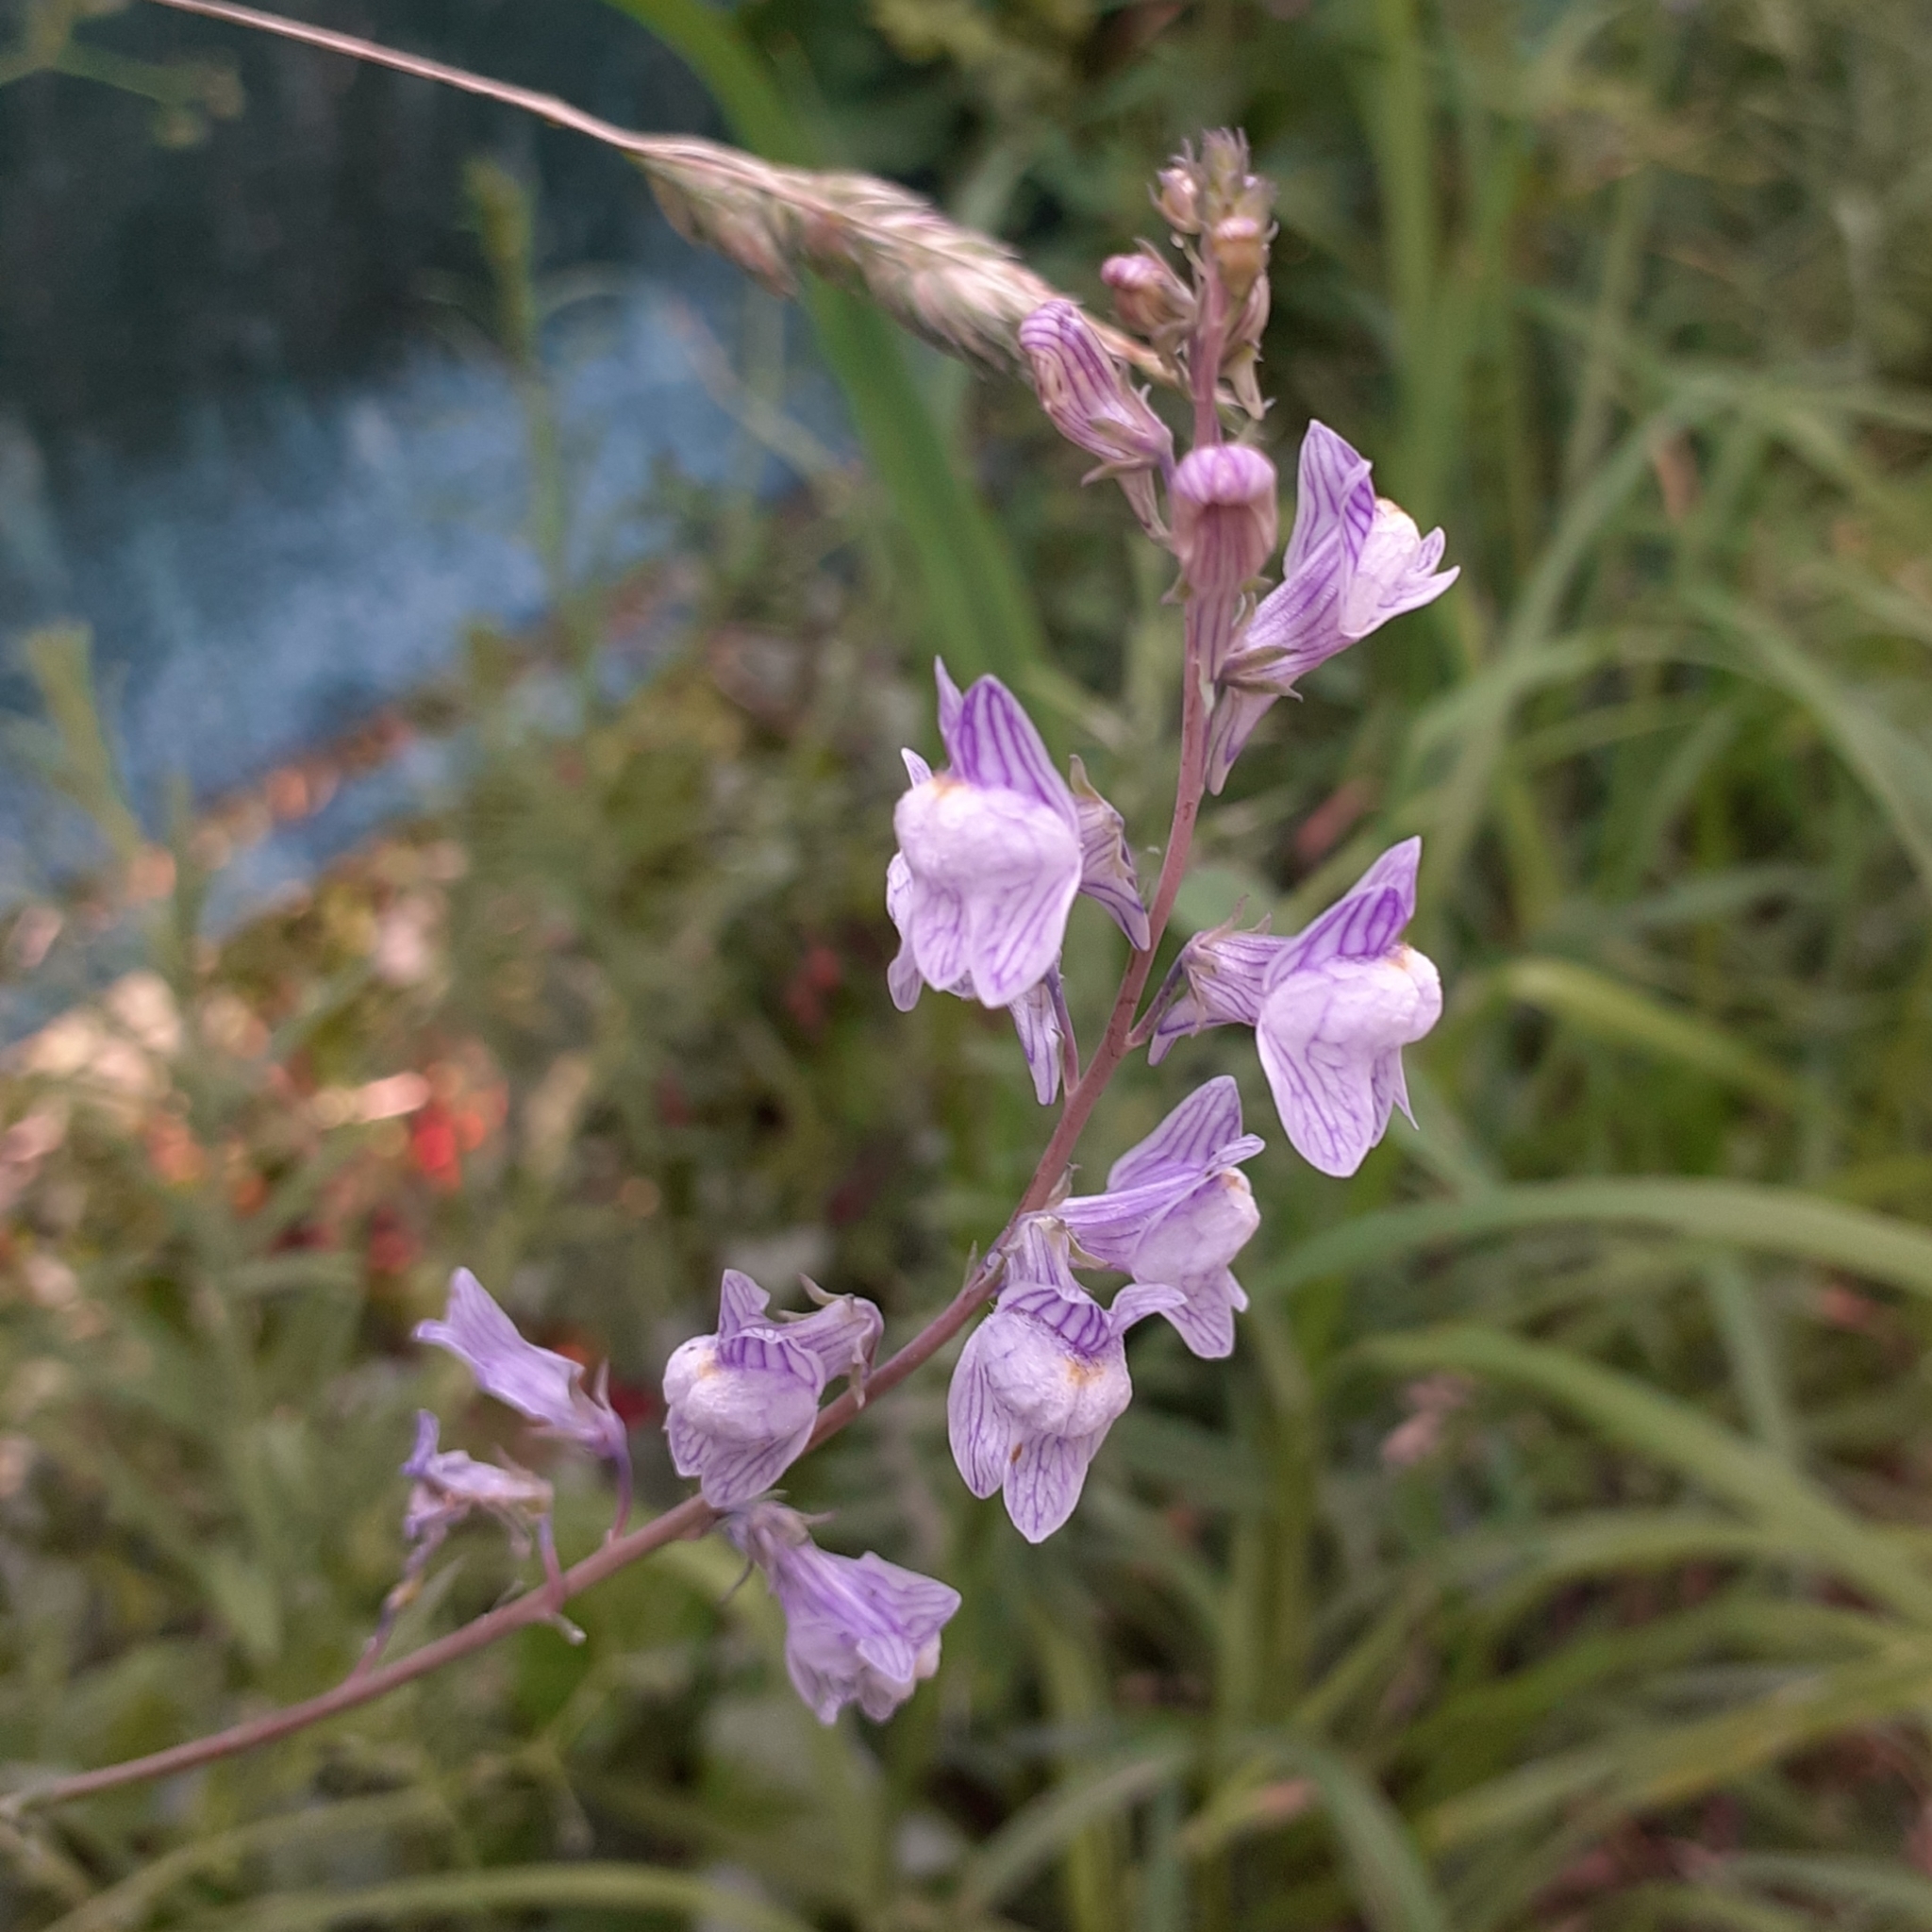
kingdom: Plantae
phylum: Tracheophyta
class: Magnoliopsida
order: Lamiales
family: Plantaginaceae
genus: Linaria
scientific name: Linaria repens
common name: Pale toadflax
